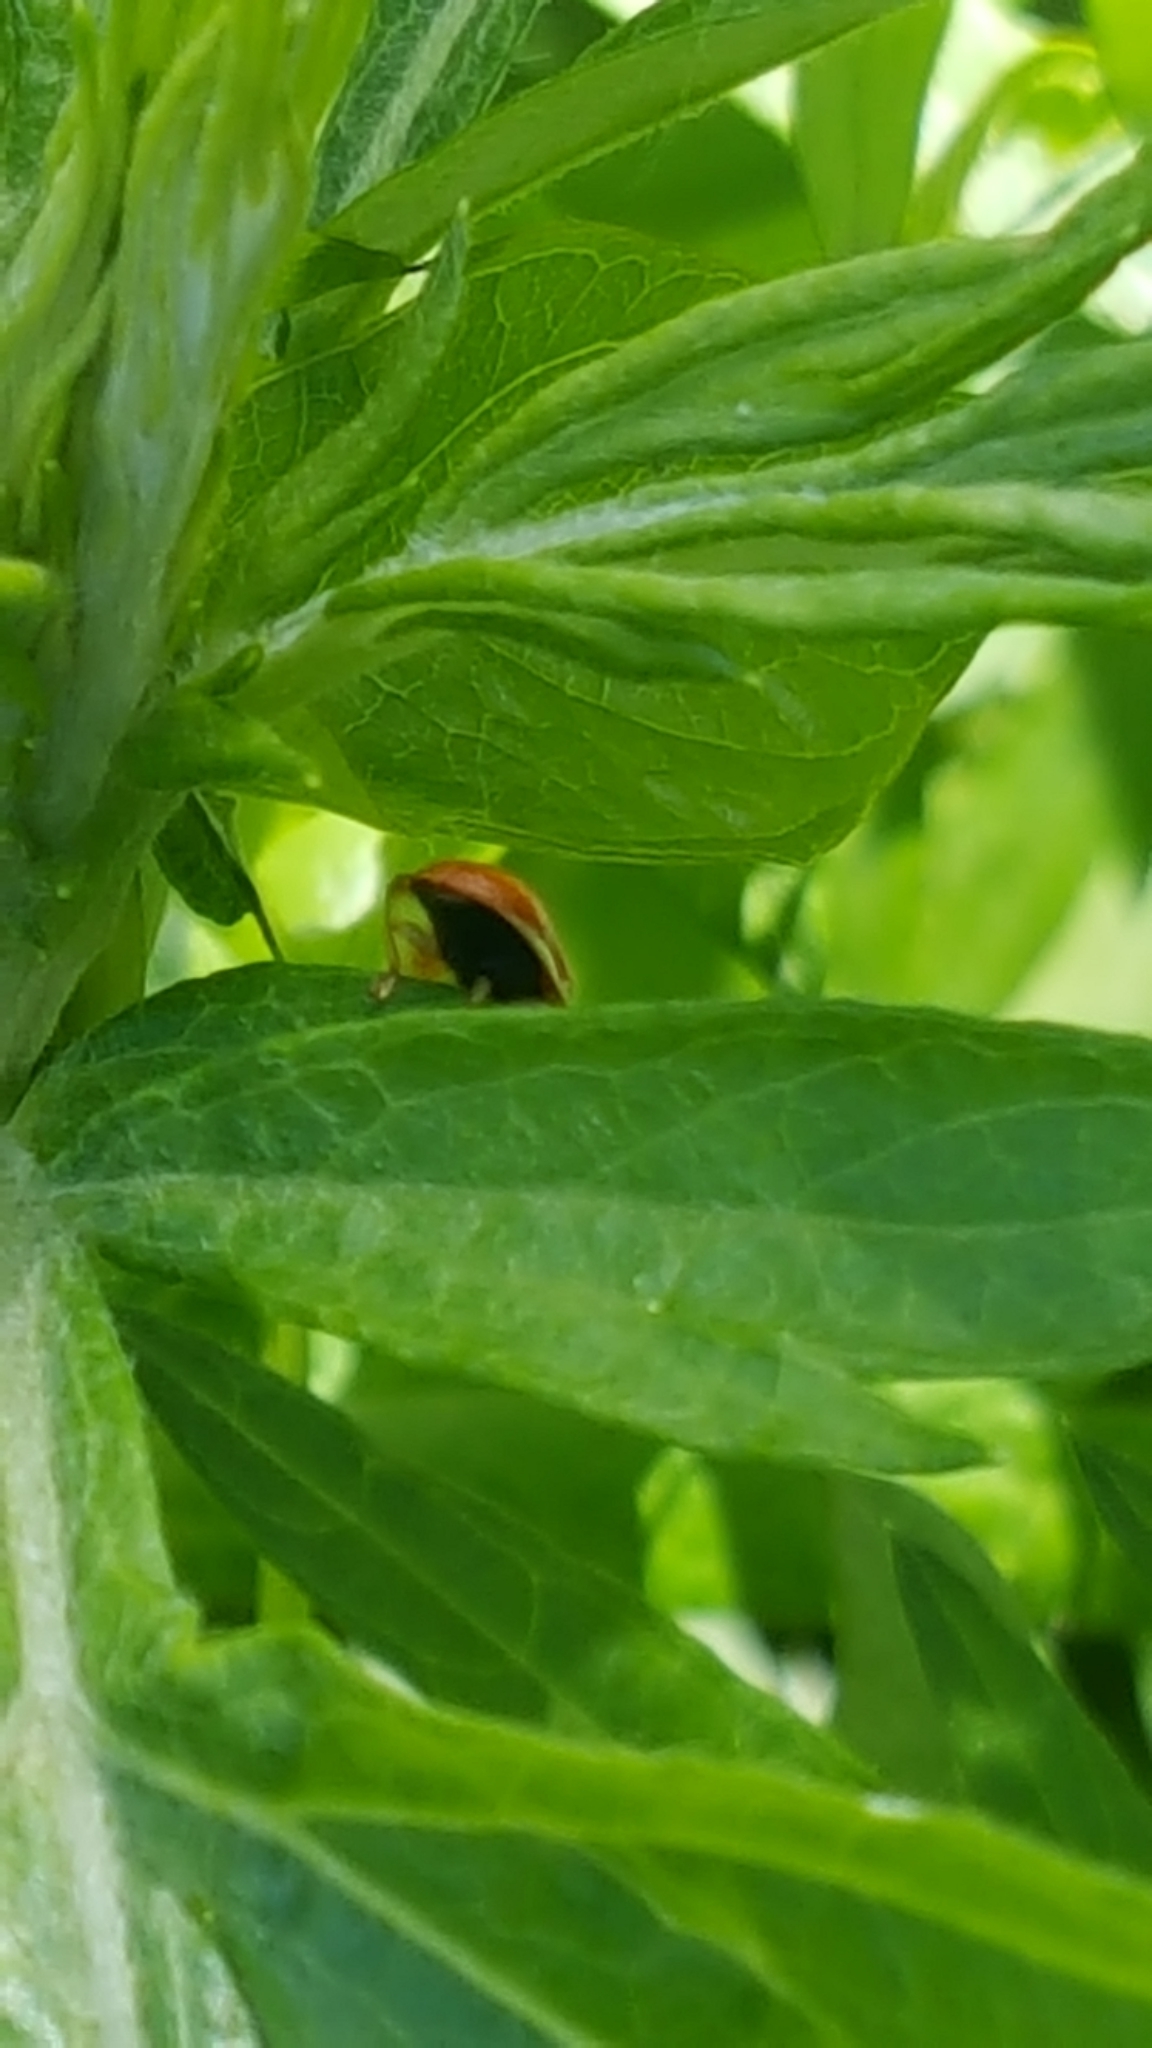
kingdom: Animalia
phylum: Arthropoda
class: Insecta
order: Coleoptera
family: Coccinellidae
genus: Harmonia
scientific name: Harmonia axyridis
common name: Harlequin ladybird
